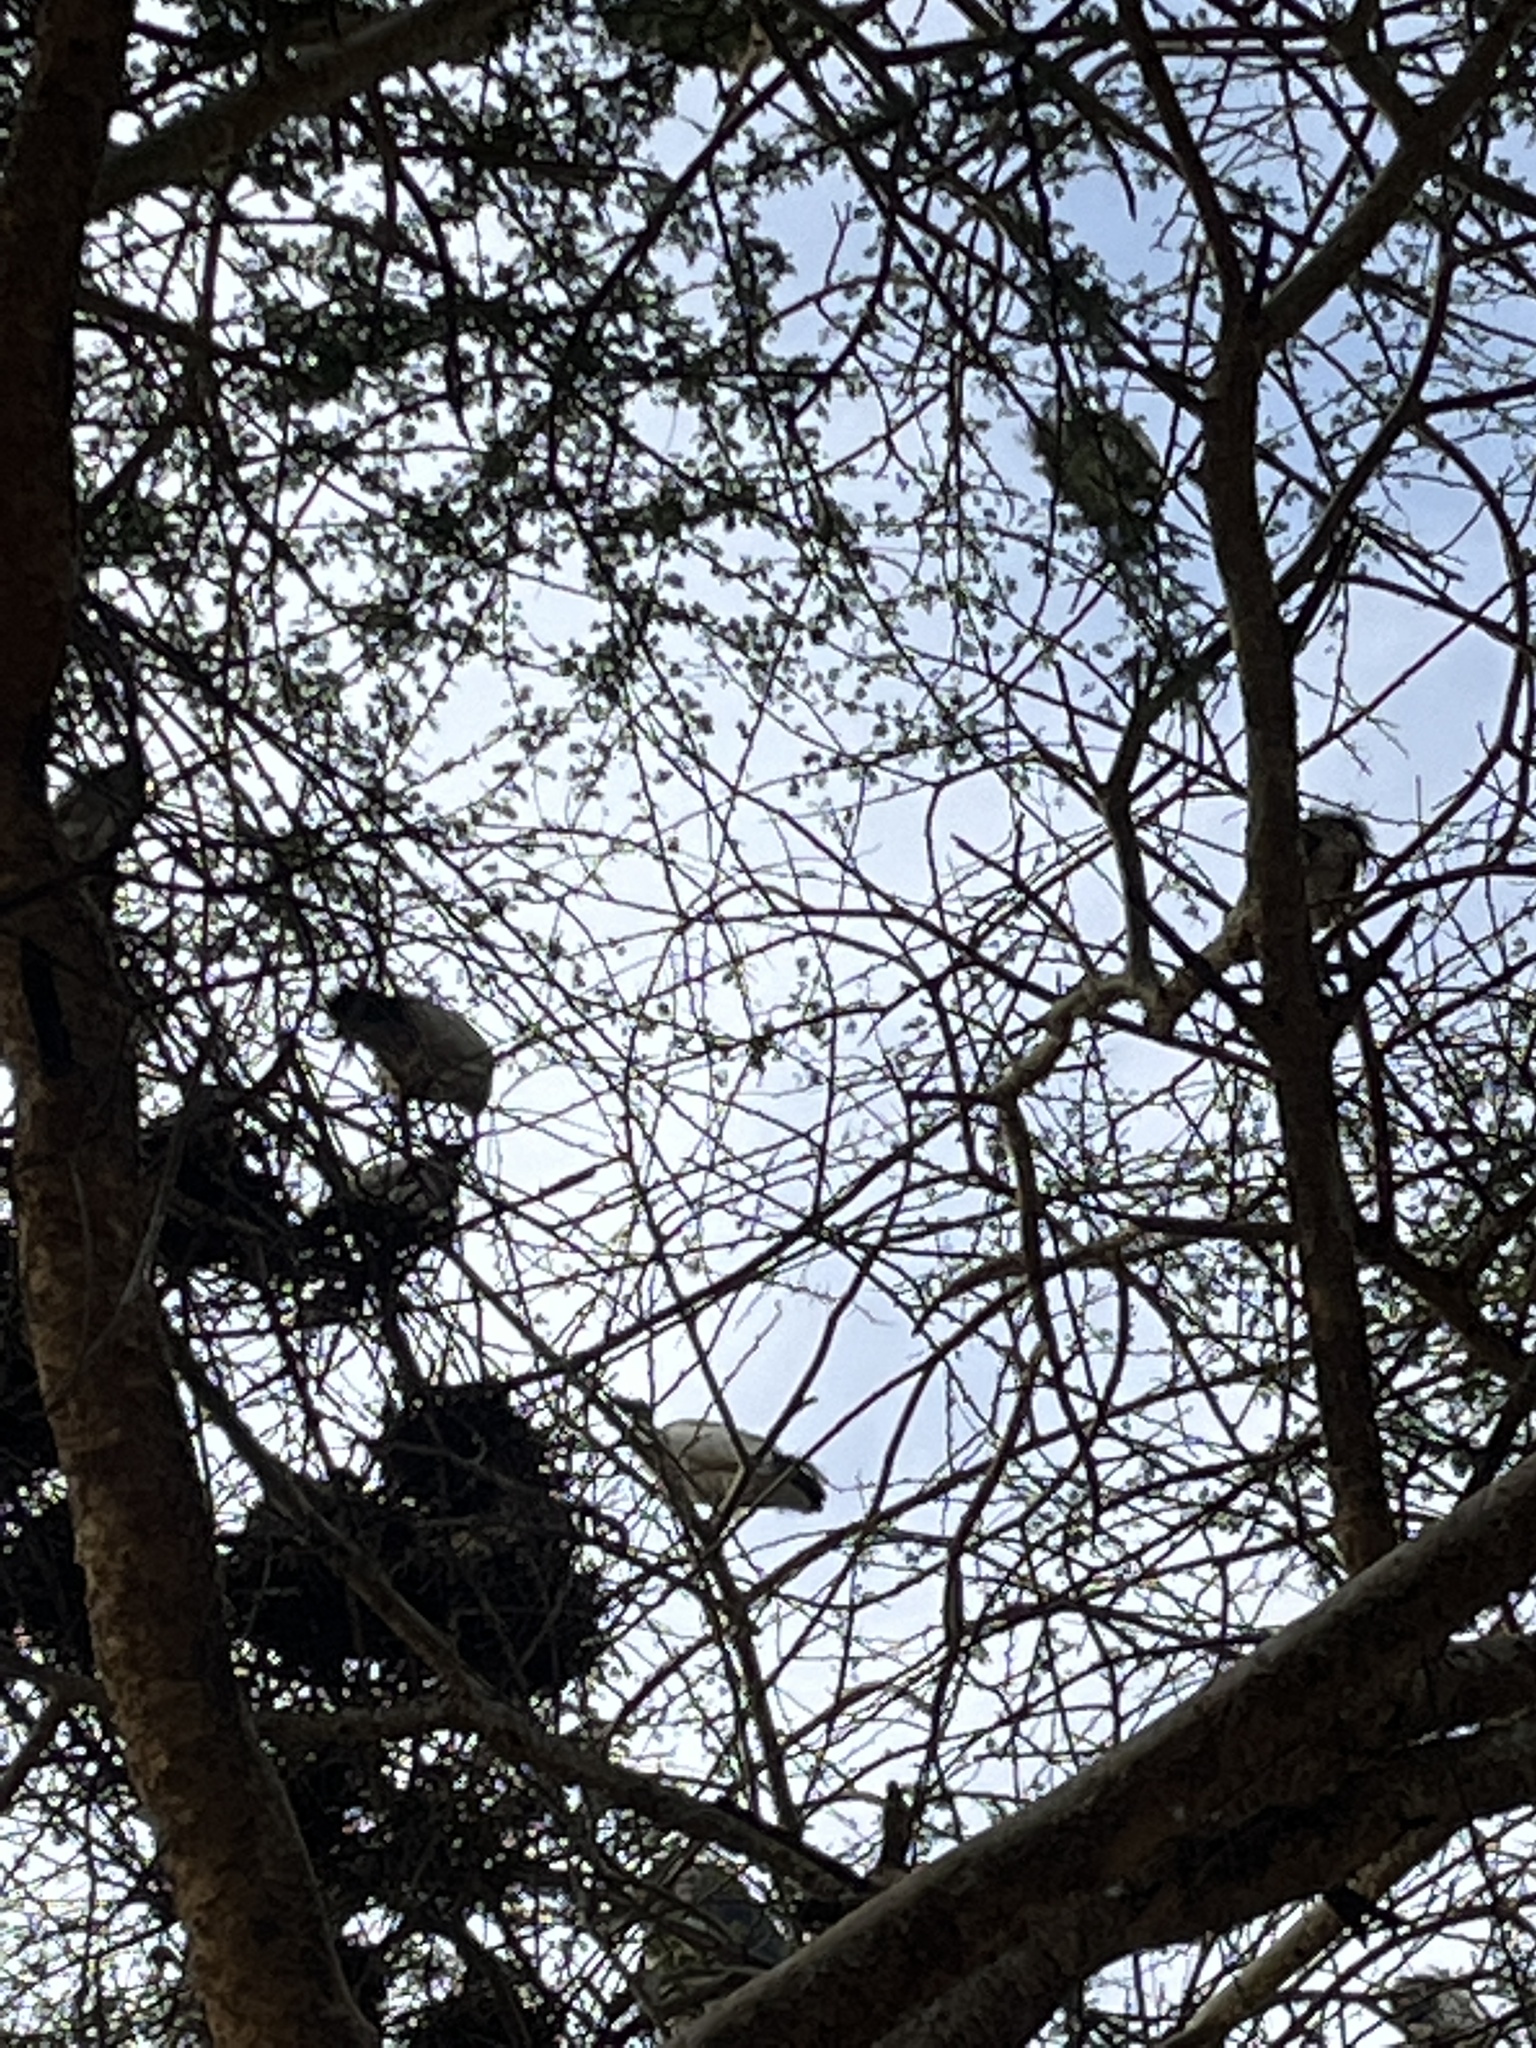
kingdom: Animalia
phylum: Chordata
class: Aves
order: Pelecaniformes
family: Threskiornithidae
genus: Threskiornis
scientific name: Threskiornis aethiopicus
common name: Sacred ibis
